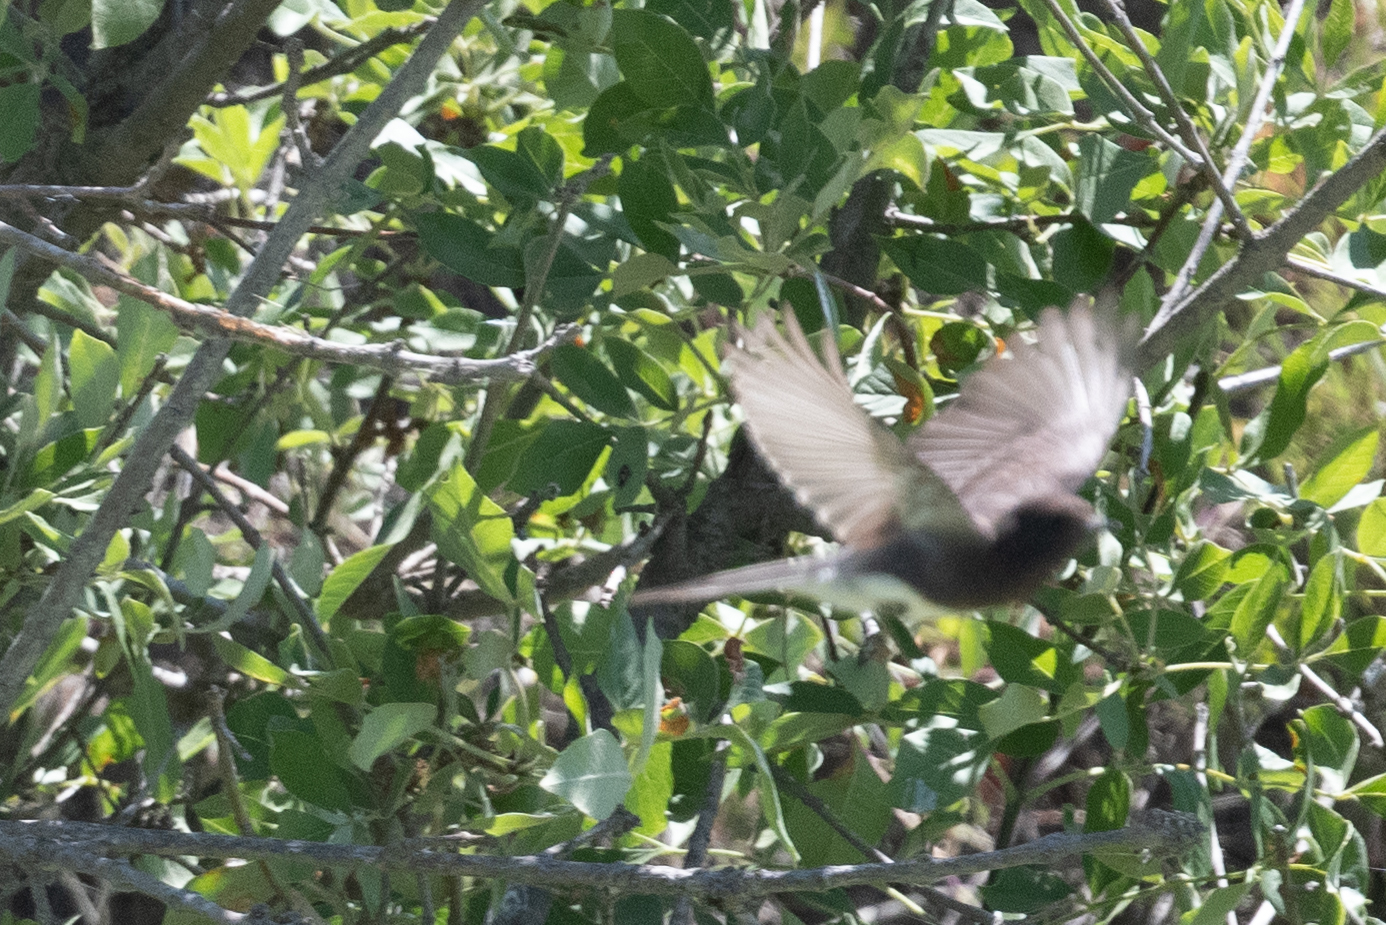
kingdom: Animalia
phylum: Chordata
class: Aves
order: Passeriformes
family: Tyrannidae
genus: Sayornis
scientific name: Sayornis nigricans
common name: Black phoebe
